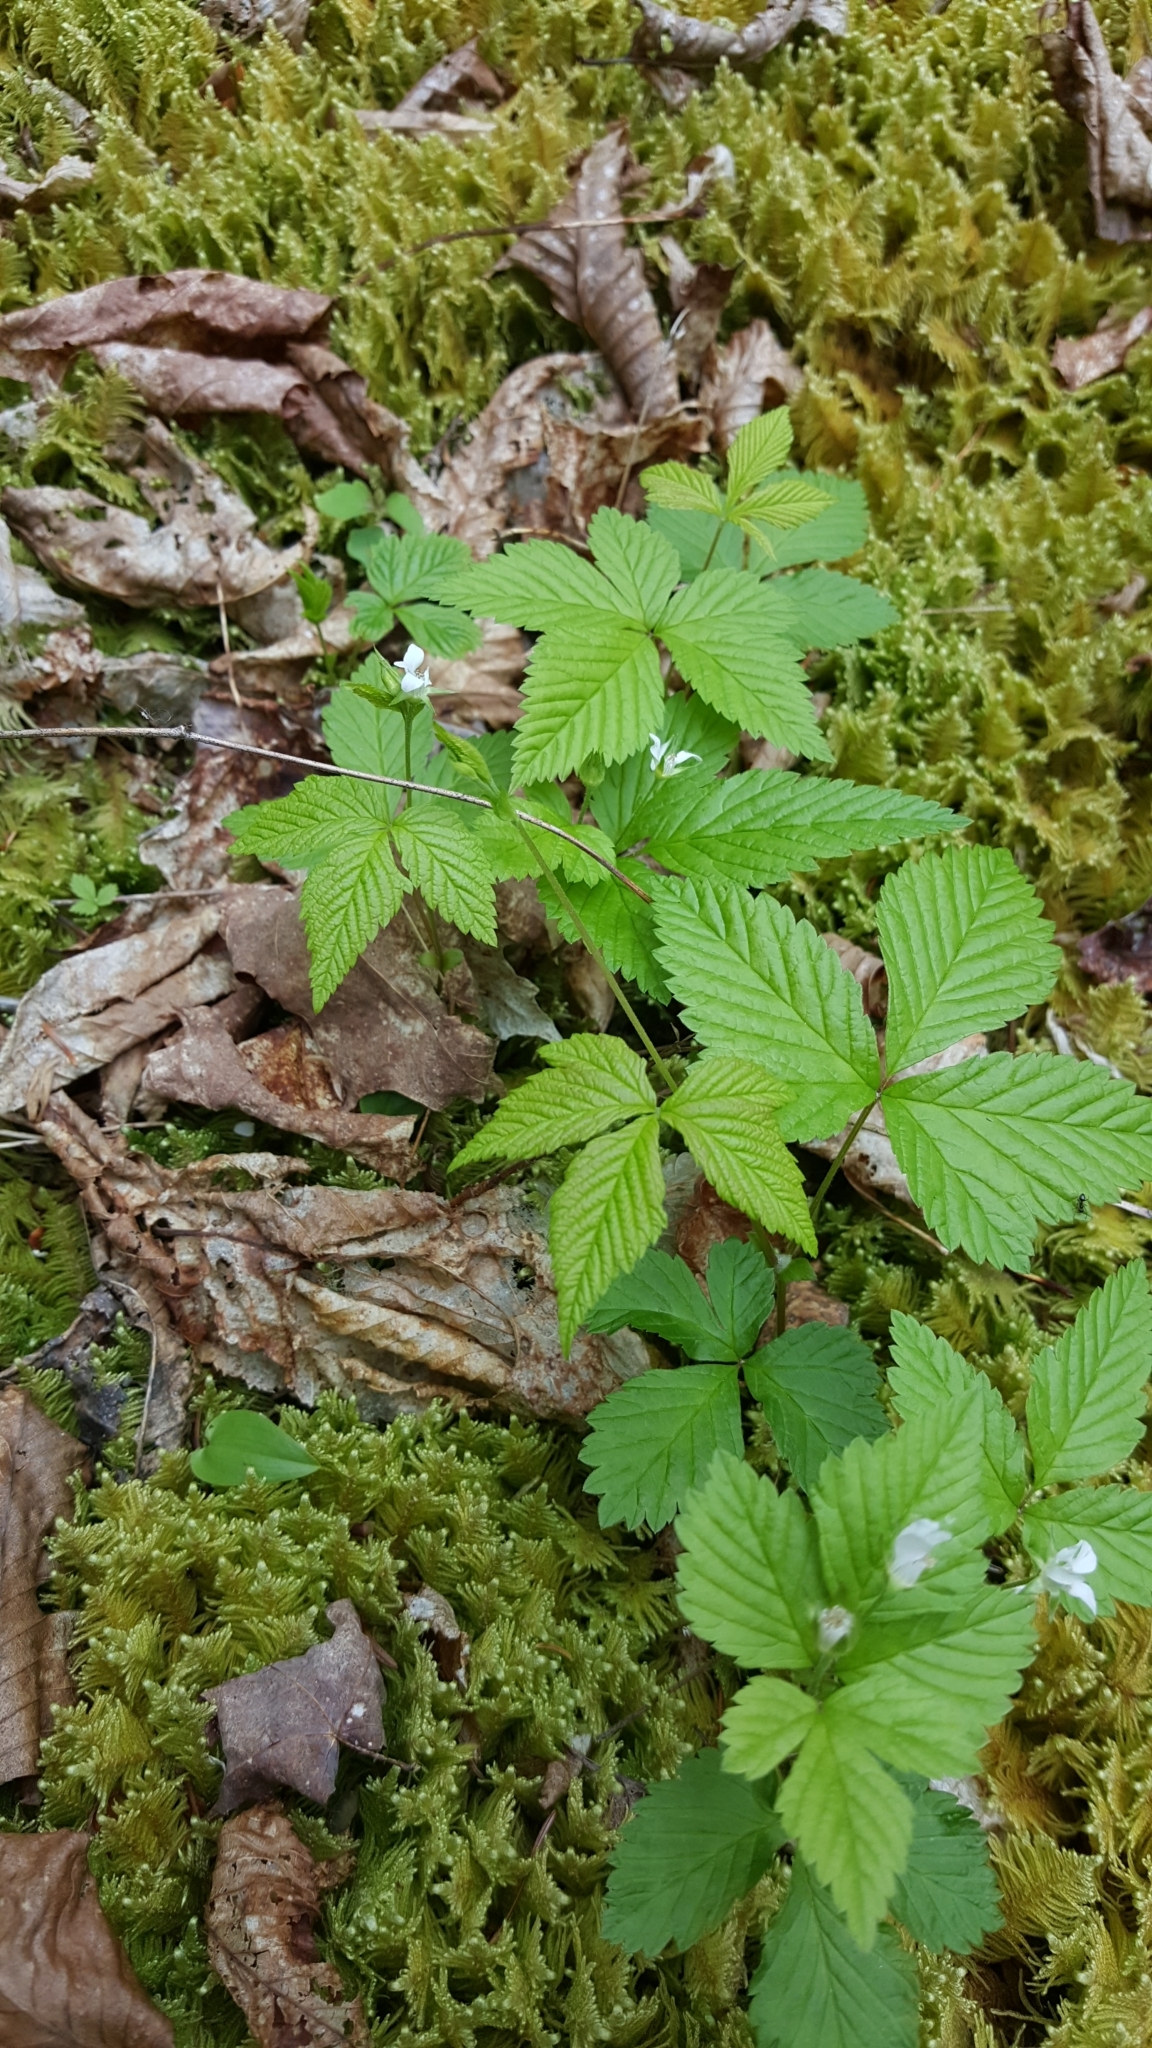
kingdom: Plantae
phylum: Tracheophyta
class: Magnoliopsida
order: Rosales
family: Rosaceae
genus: Rubus
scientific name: Rubus pubescens
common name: Dwarf raspberry
